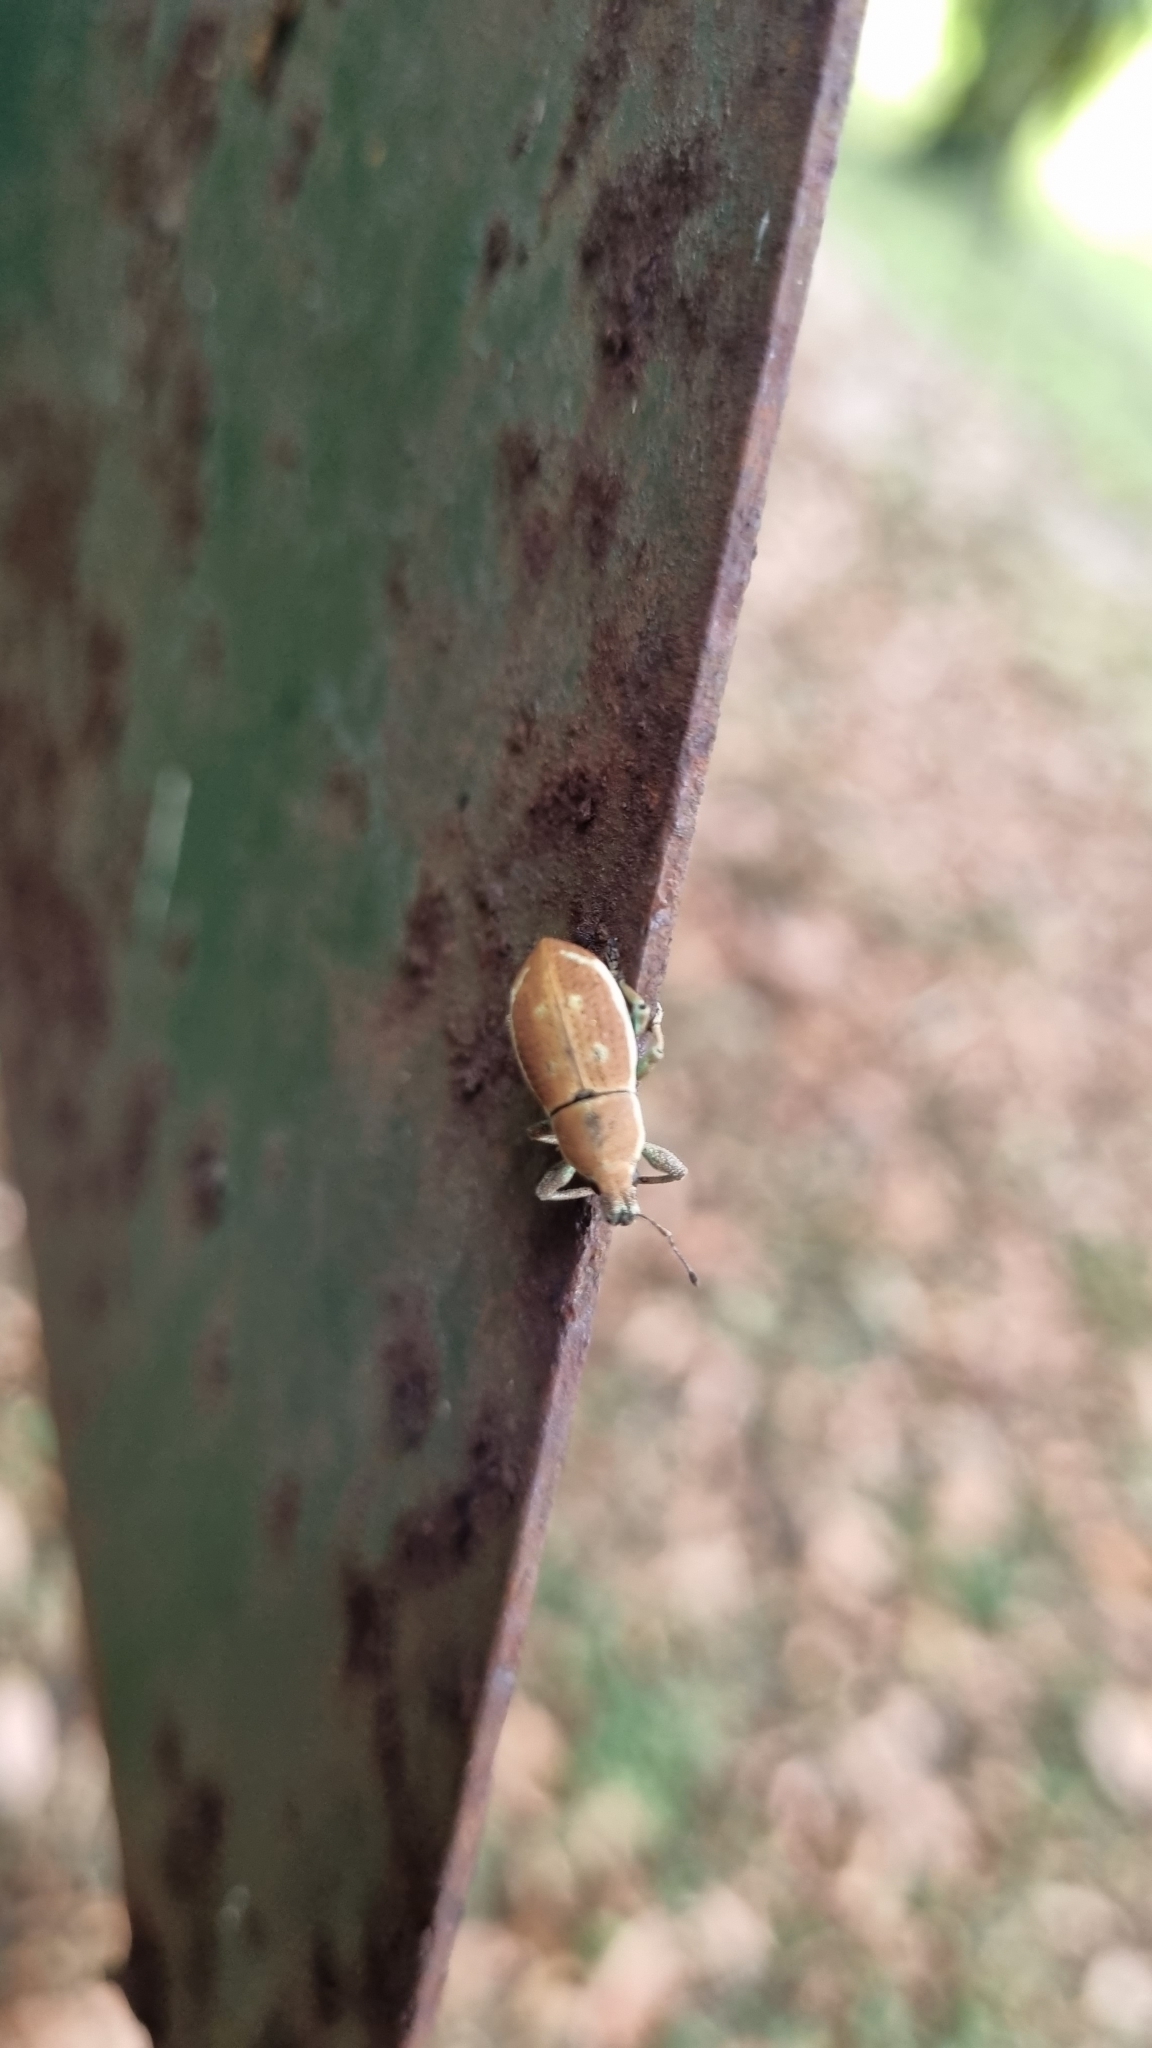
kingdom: Animalia
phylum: Arthropoda
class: Insecta
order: Coleoptera
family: Curculionidae
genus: Cleistolophus
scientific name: Cleistolophus viridimargo
